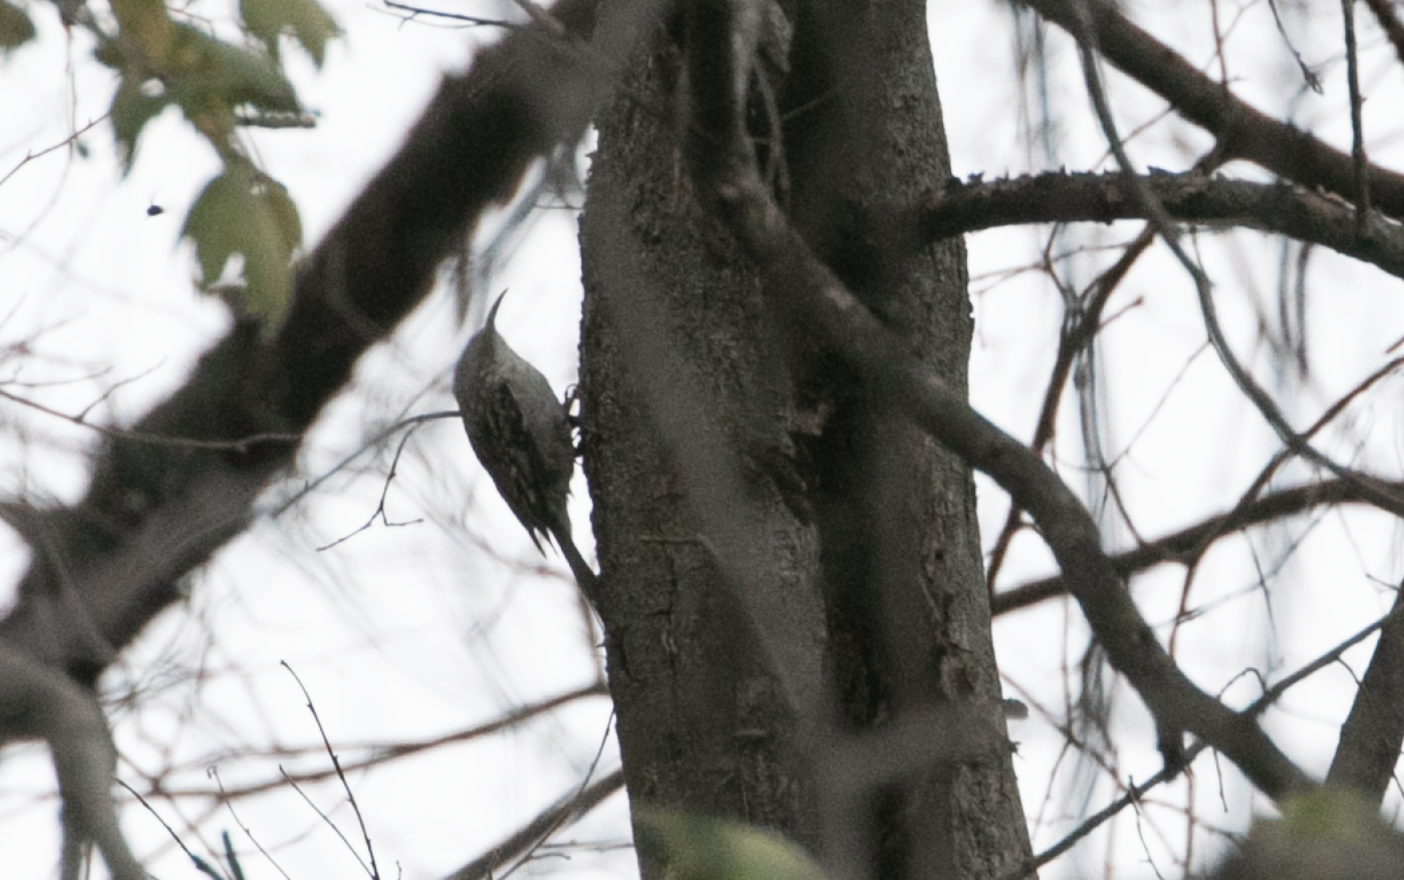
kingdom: Animalia
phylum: Chordata
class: Aves
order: Passeriformes
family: Certhiidae
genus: Certhia
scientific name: Certhia brachydactyla
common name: Short-toed treecreeper
